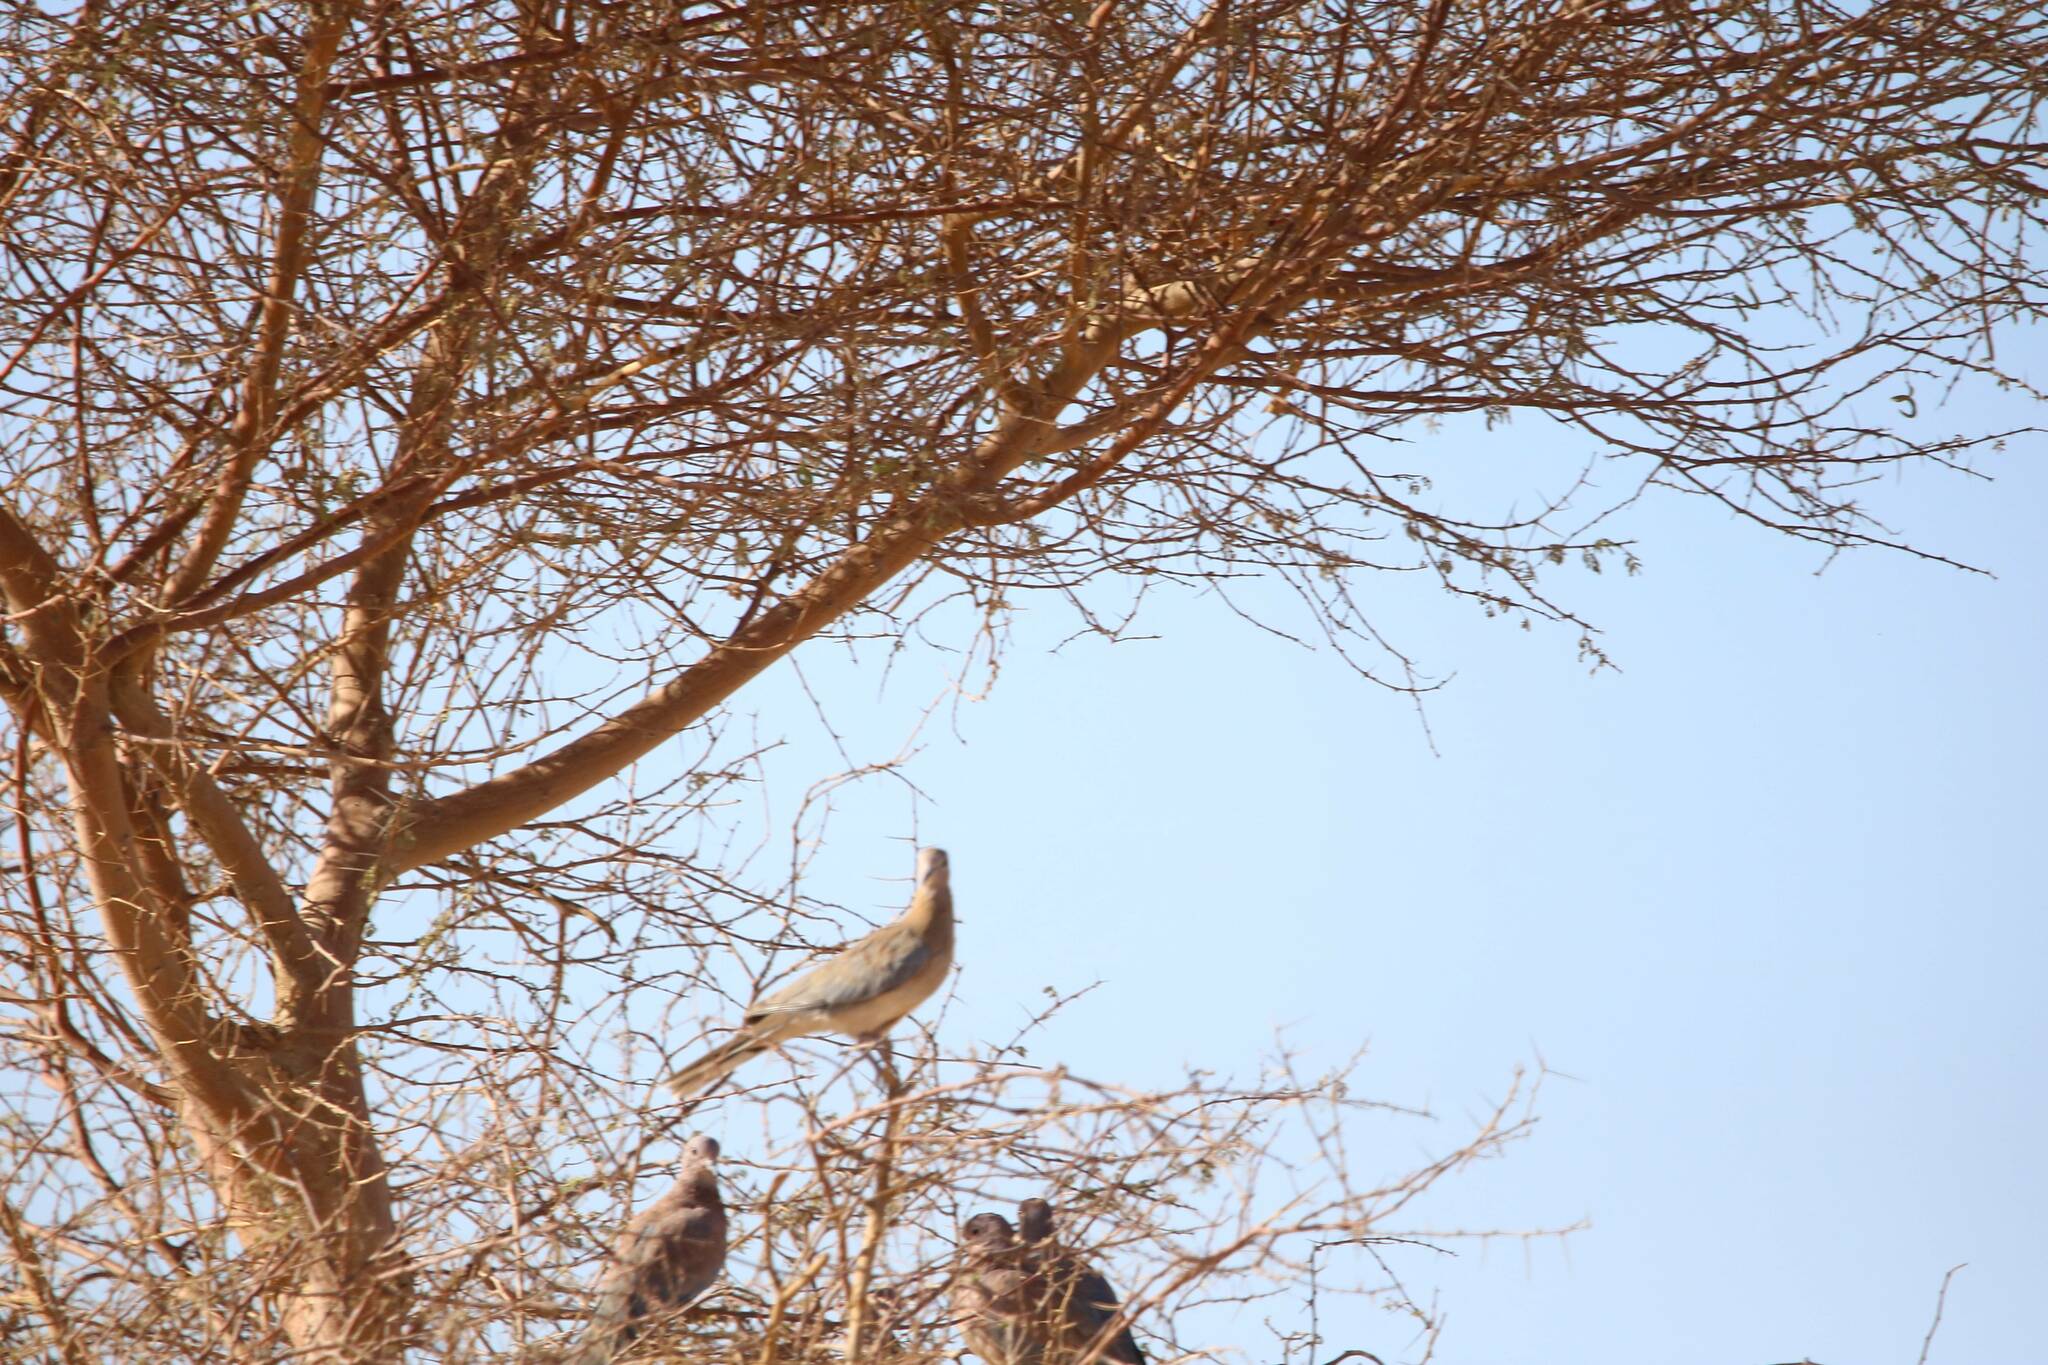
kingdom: Animalia
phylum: Chordata
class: Aves
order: Columbiformes
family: Columbidae
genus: Spilopelia
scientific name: Spilopelia senegalensis
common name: Laughing dove
